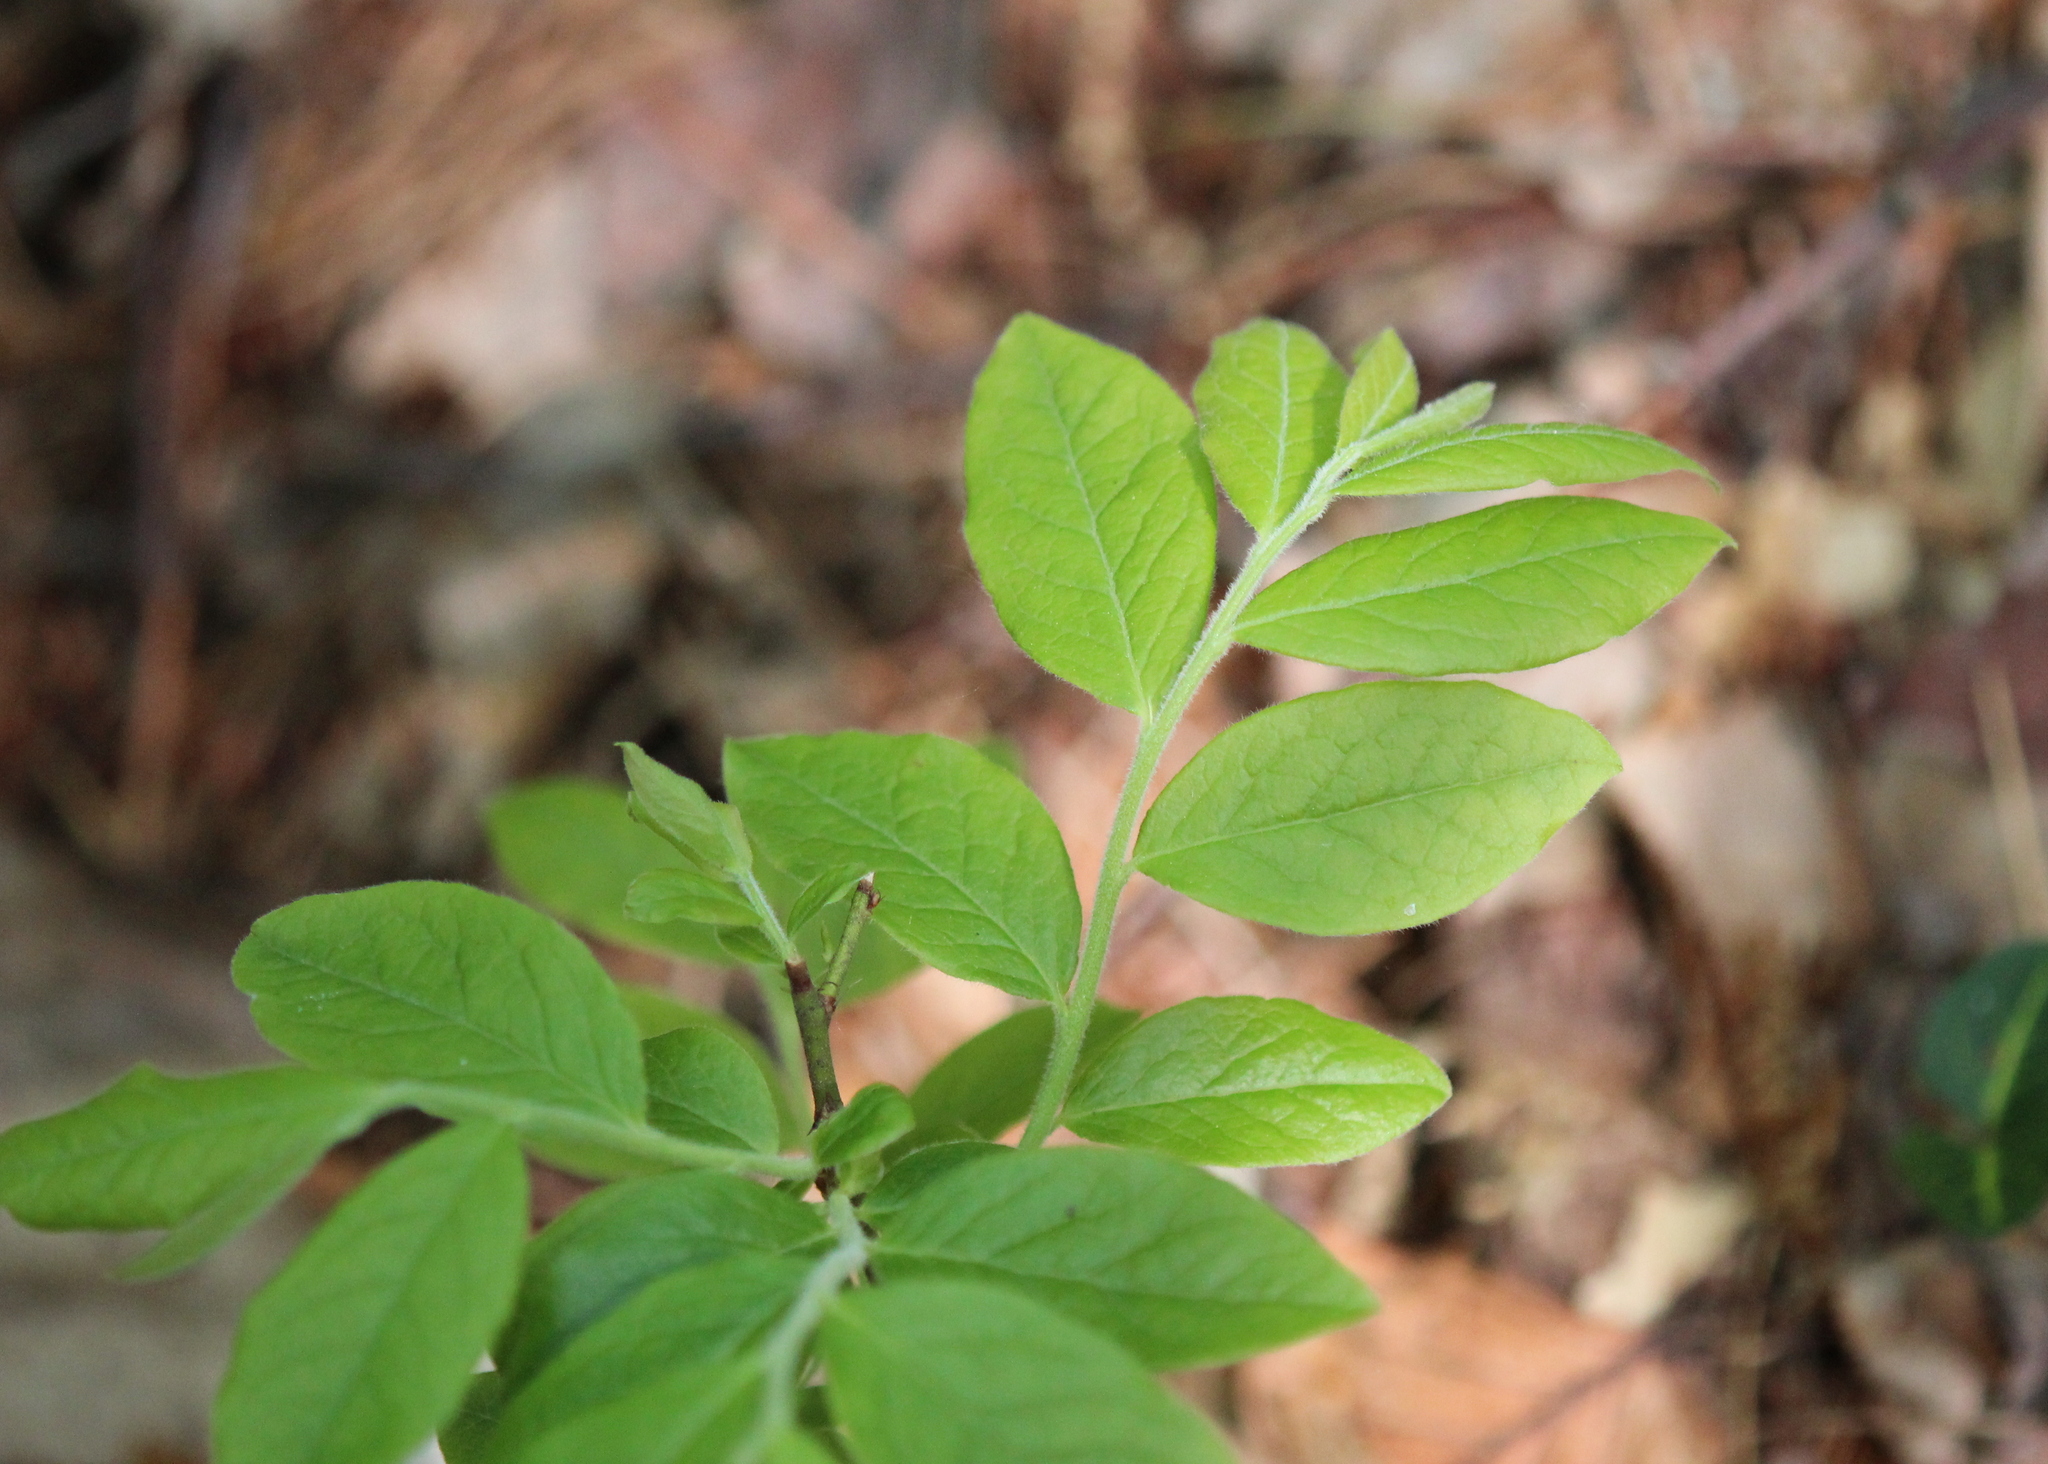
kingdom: Plantae
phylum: Tracheophyta
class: Magnoliopsida
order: Ericales
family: Ericaceae
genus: Vaccinium
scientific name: Vaccinium myrtilloides
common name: Canada blueberry
